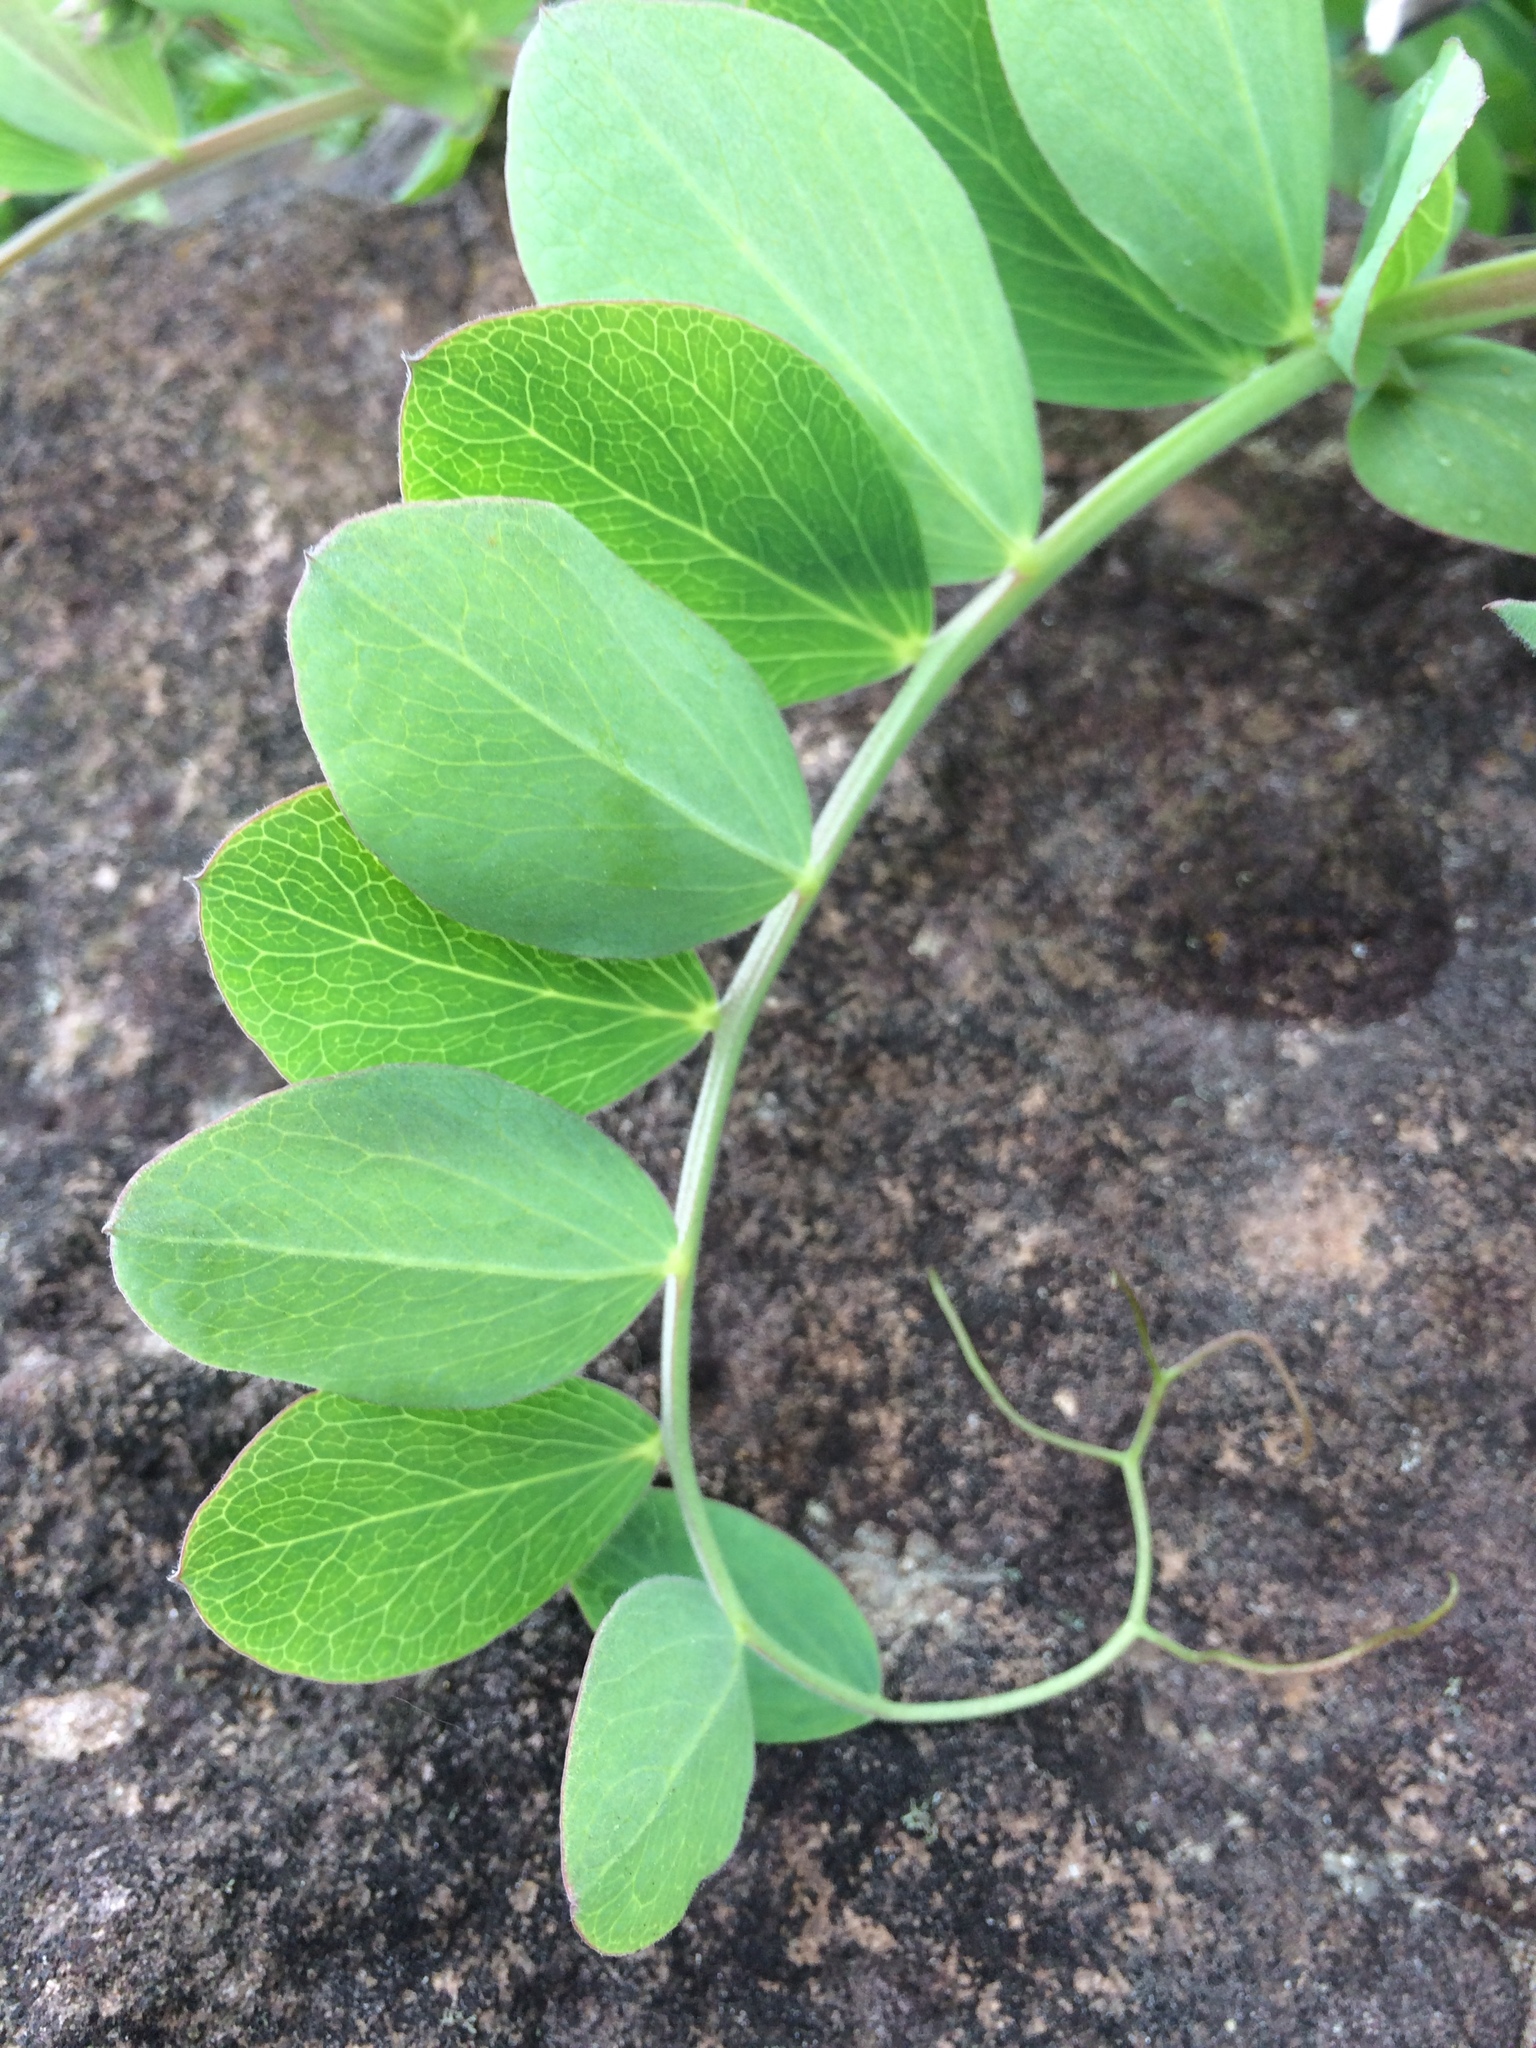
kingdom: Plantae
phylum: Tracheophyta
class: Magnoliopsida
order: Fabales
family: Fabaceae
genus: Lathyrus
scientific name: Lathyrus japonicus
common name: Sea pea
